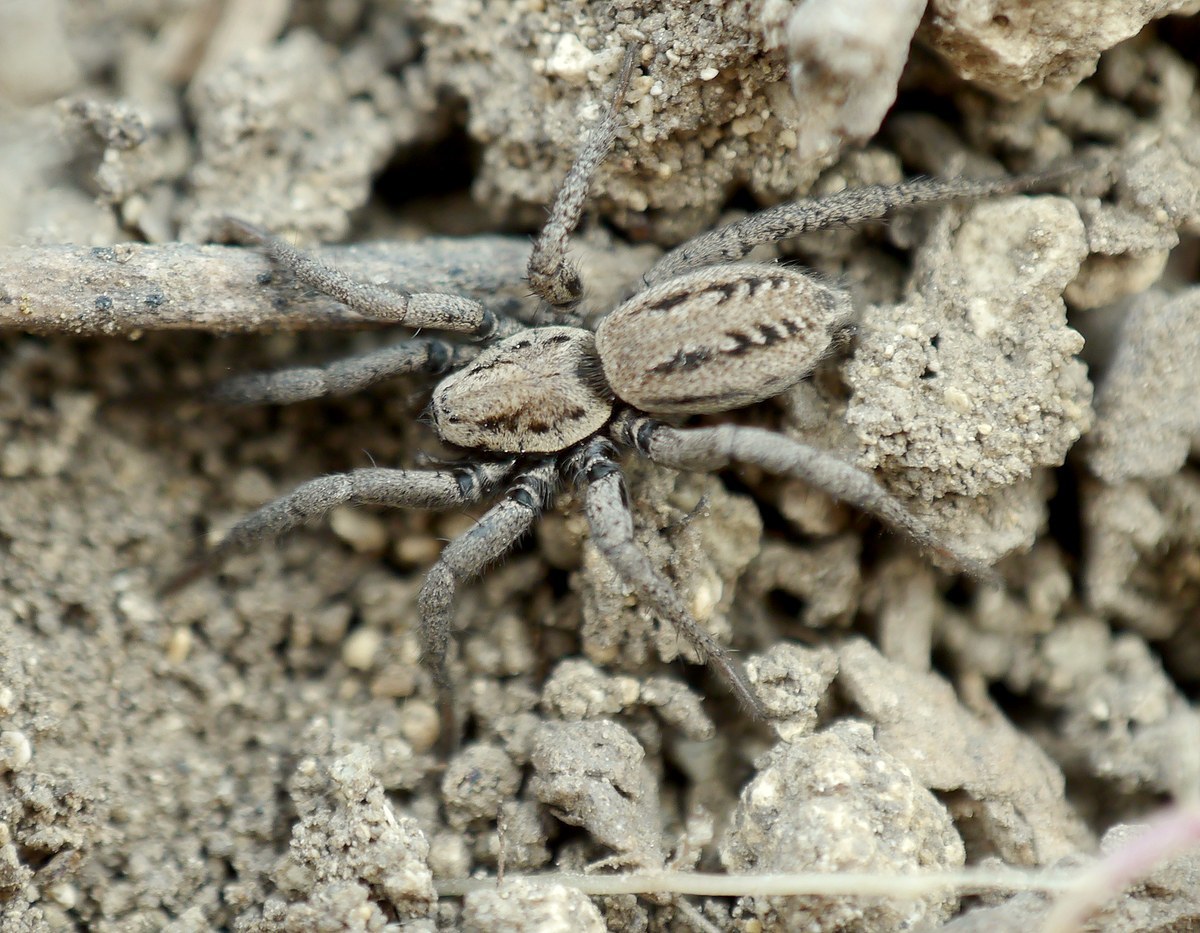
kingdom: Animalia
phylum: Arthropoda
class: Arachnida
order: Araneae
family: Gnaphosidae
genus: Berlandina
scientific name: Berlandina cinerea
